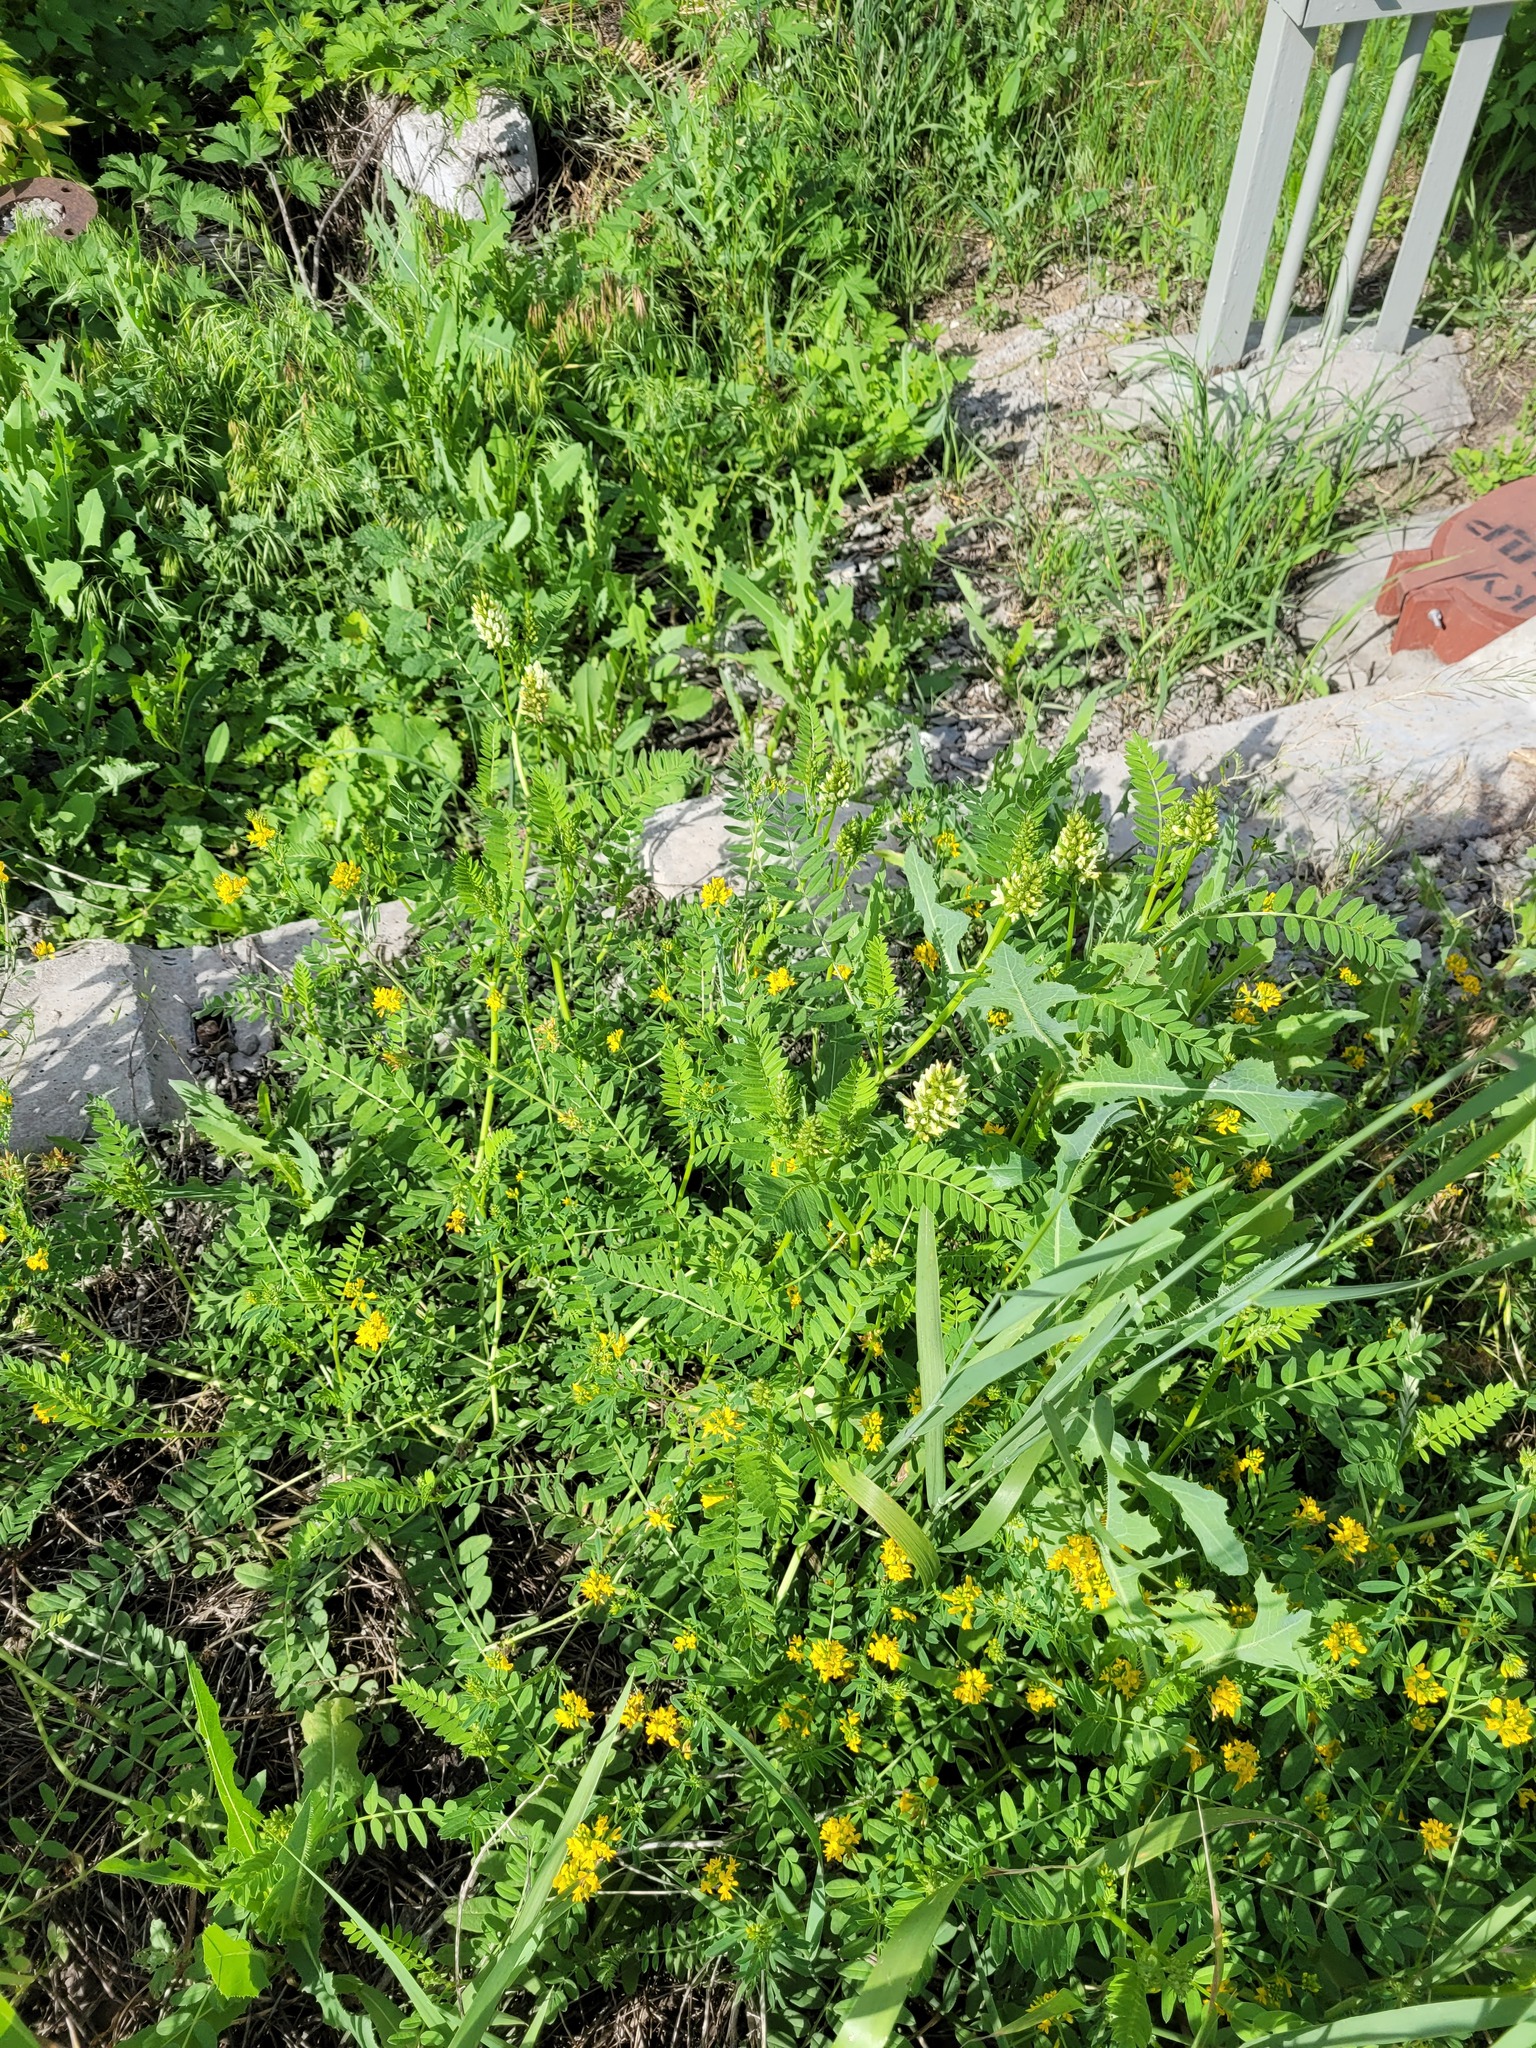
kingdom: Plantae
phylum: Tracheophyta
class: Magnoliopsida
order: Fabales
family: Fabaceae
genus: Astragalus
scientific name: Astragalus cicer
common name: Chick-pea milk-vetch
